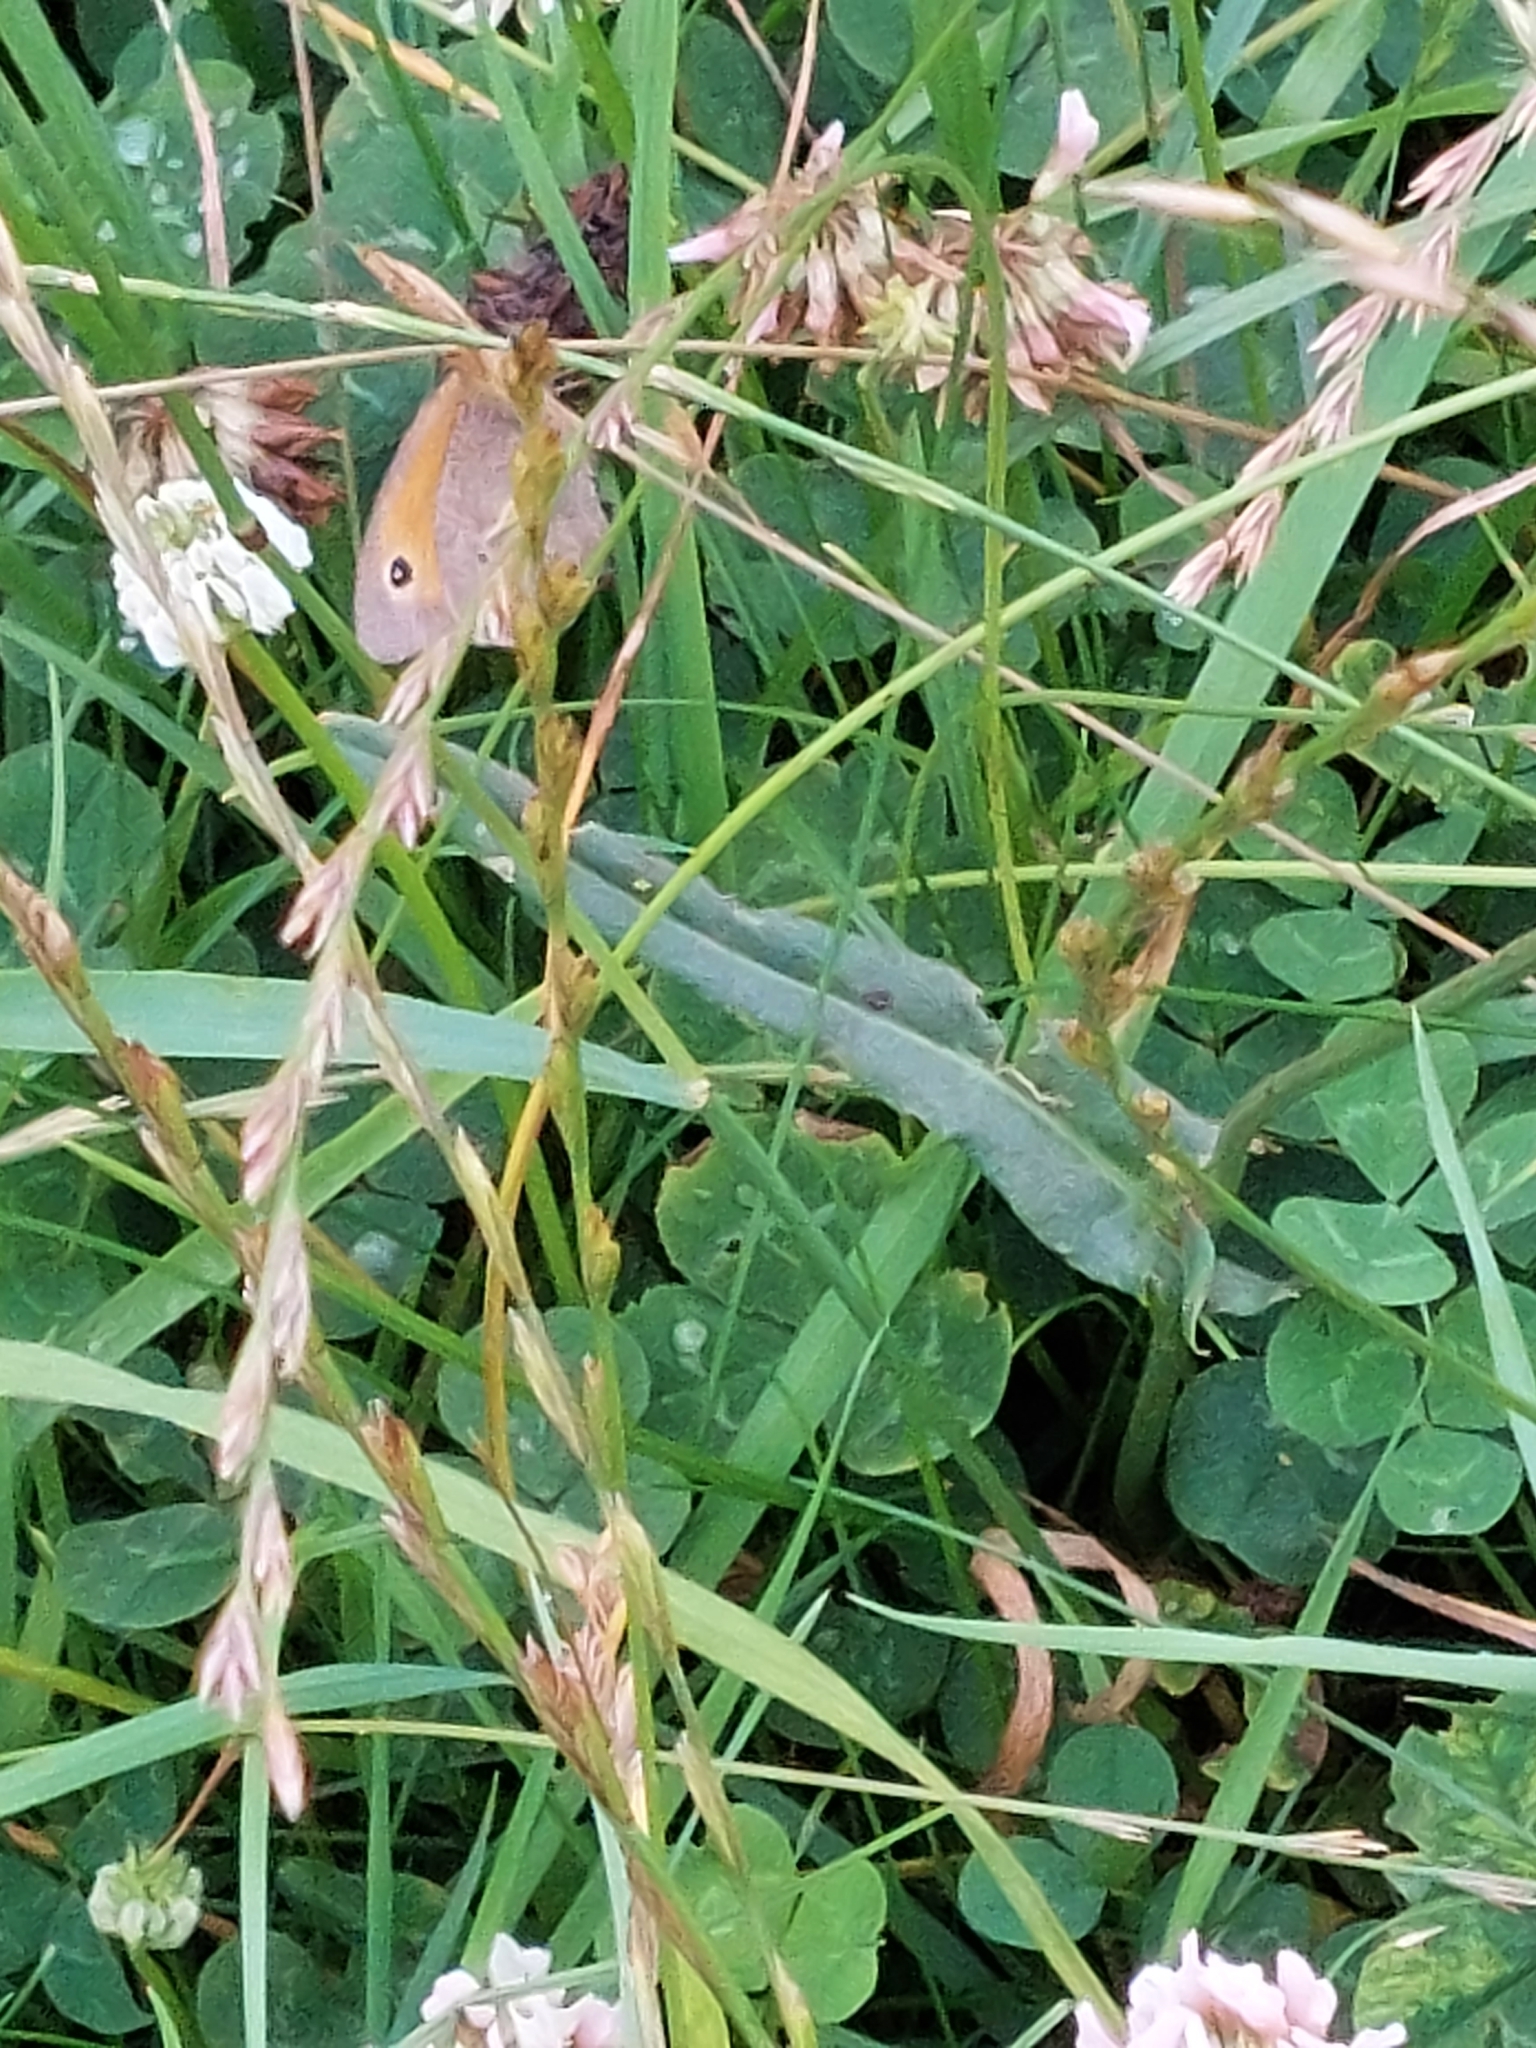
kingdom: Animalia
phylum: Arthropoda
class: Insecta
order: Lepidoptera
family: Nymphalidae
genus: Maniola
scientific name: Maniola jurtina
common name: Meadow brown
